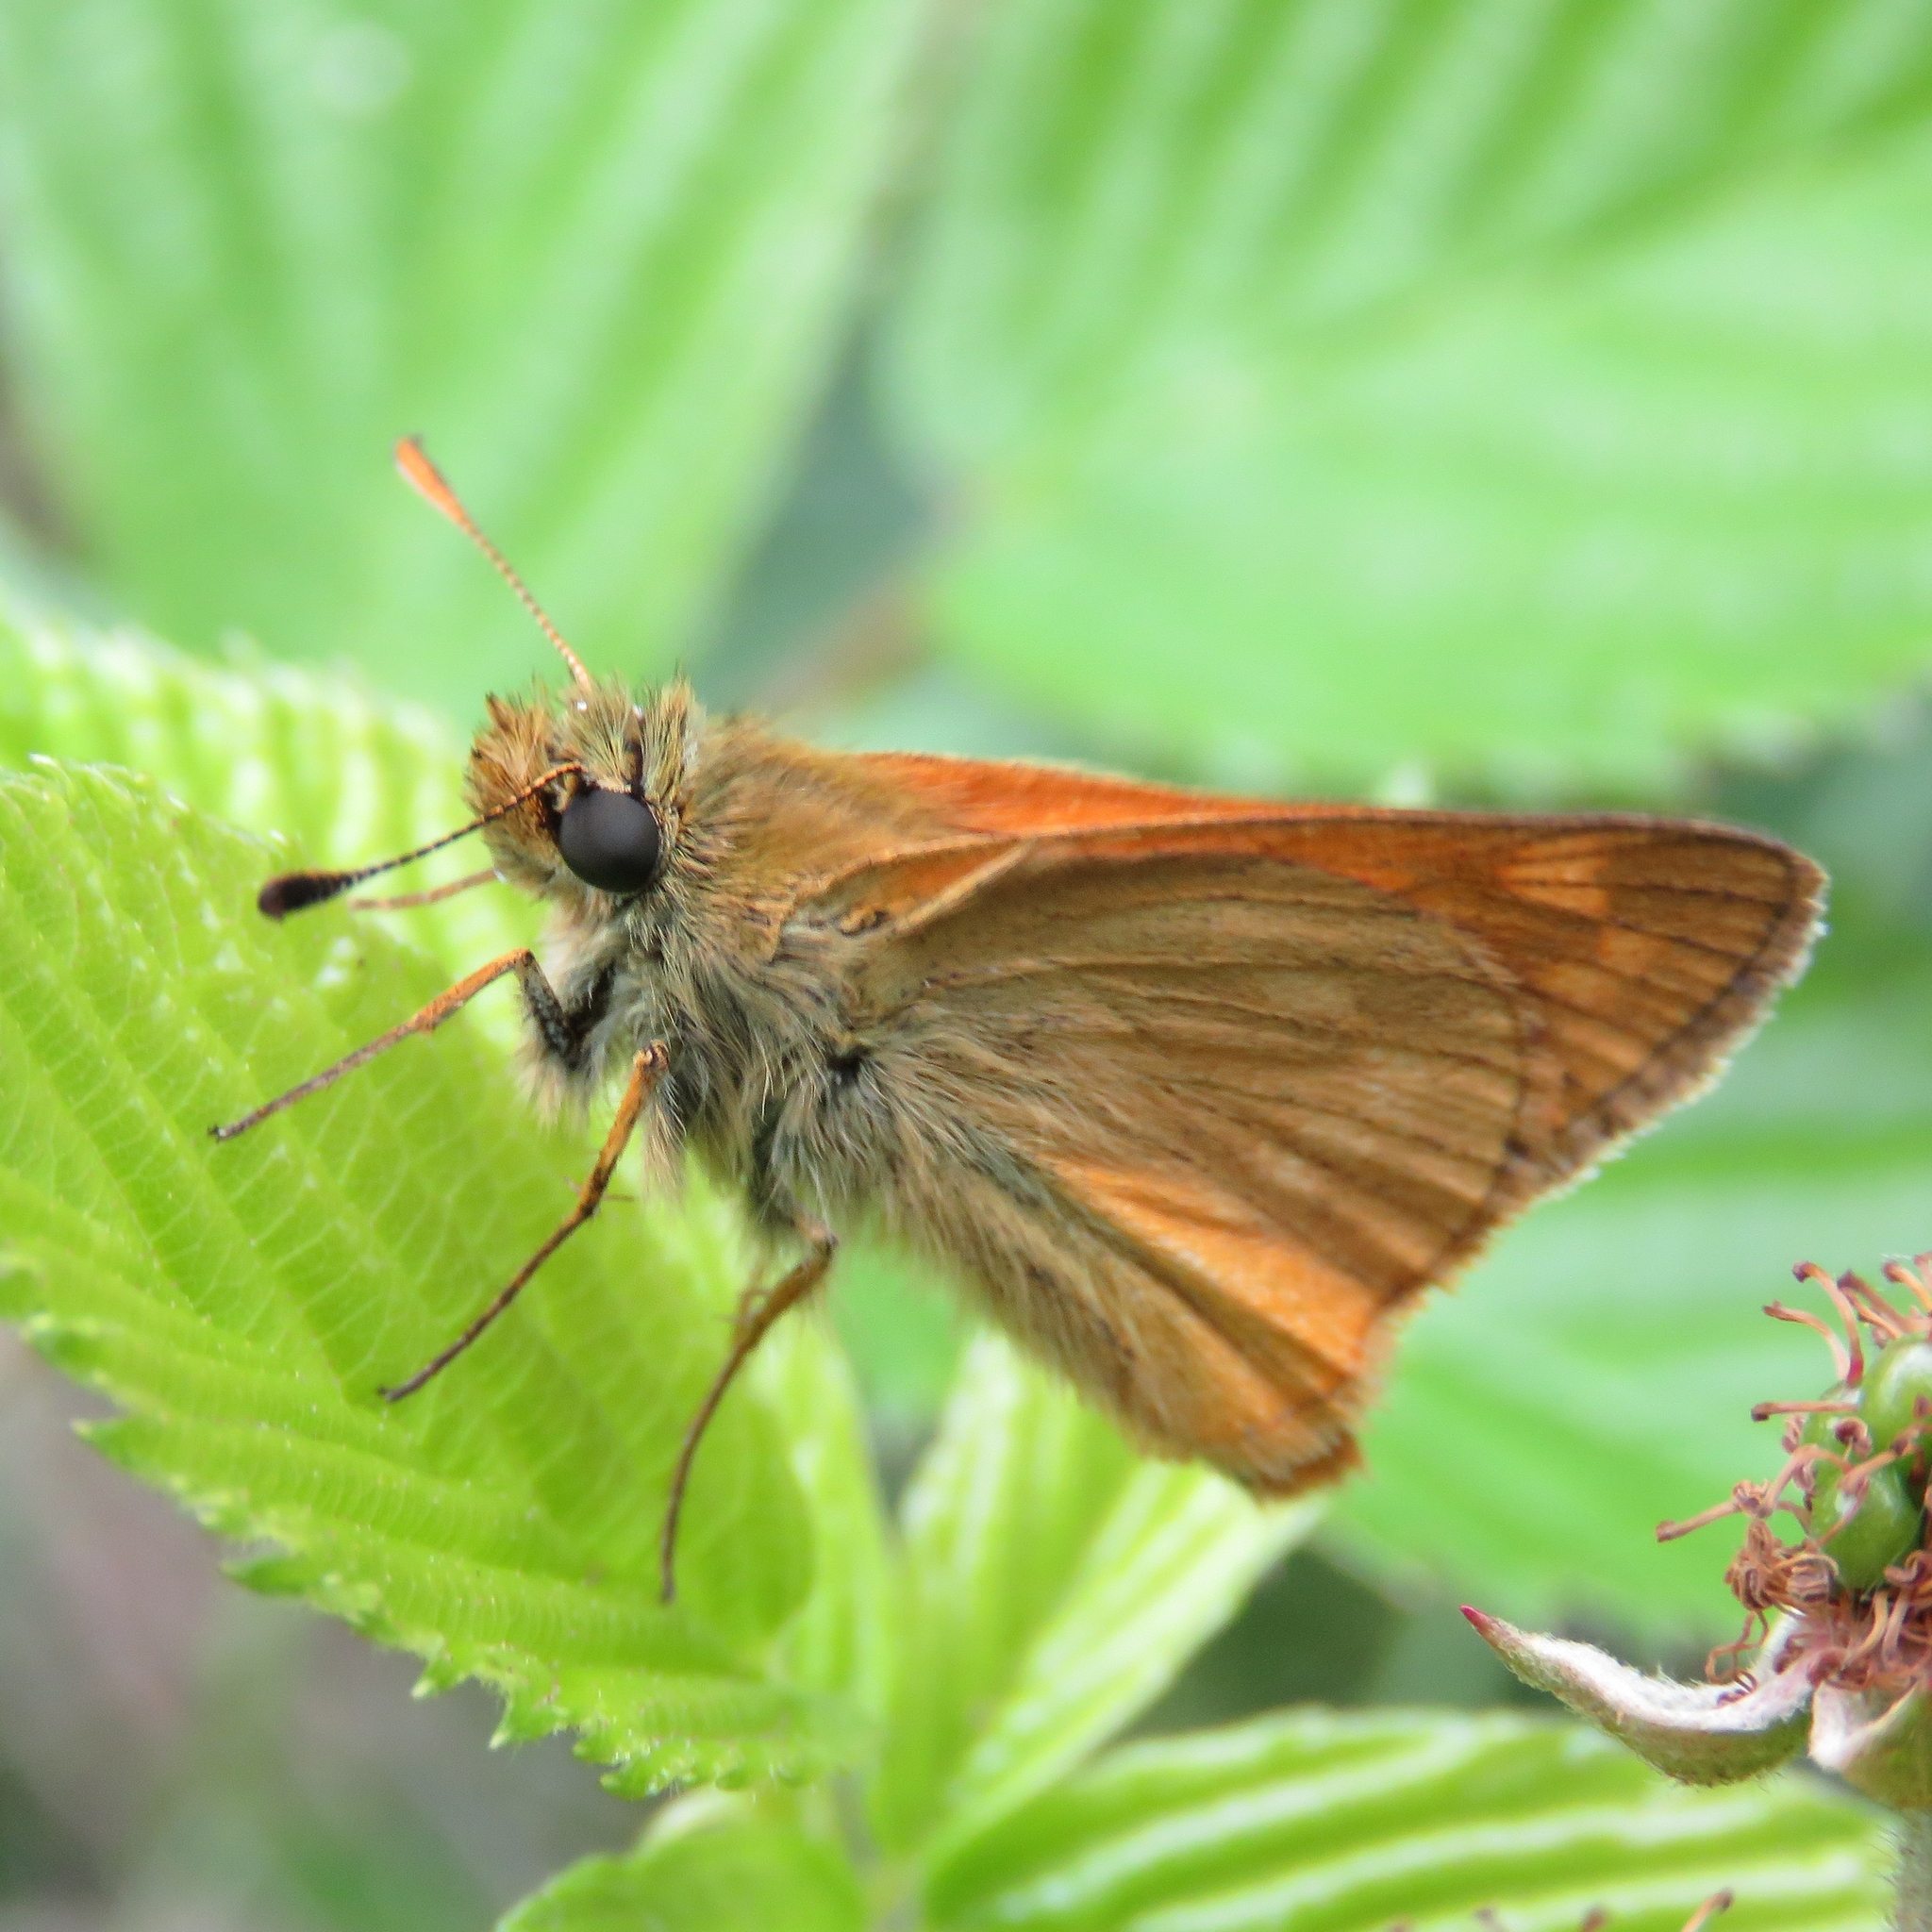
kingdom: Animalia
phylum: Arthropoda
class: Insecta
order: Lepidoptera
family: Hesperiidae
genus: Ochlodes
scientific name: Ochlodes venata
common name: Large skipper
